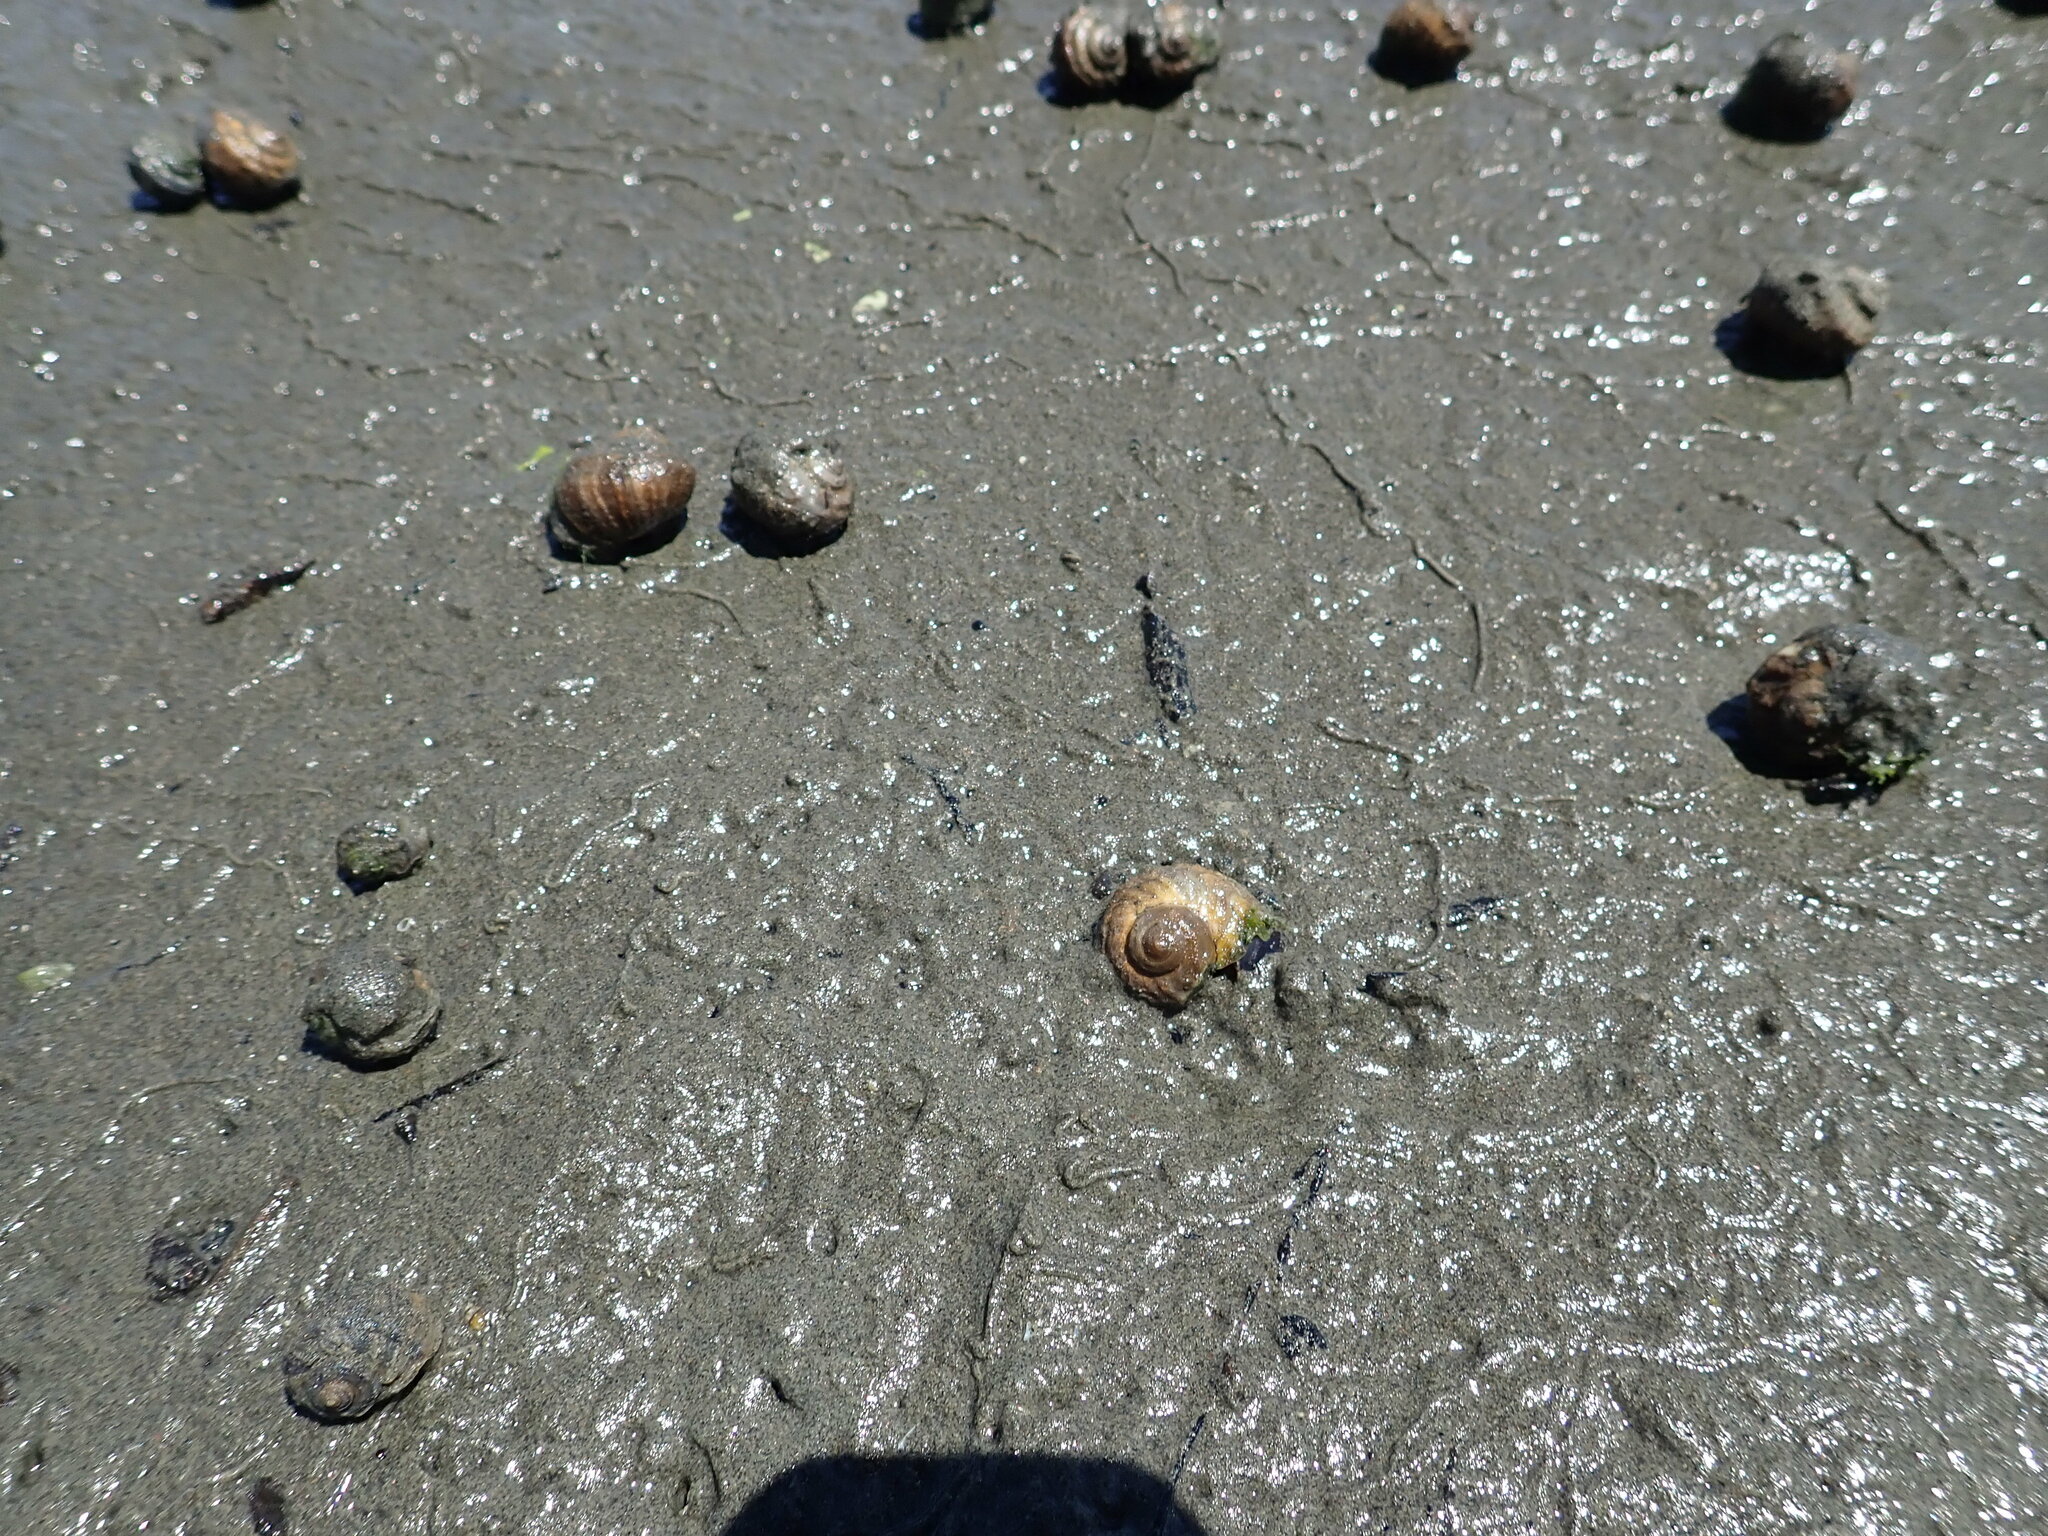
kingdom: Animalia
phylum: Mollusca
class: Gastropoda
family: Amphibolidae
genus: Amphibola
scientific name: Amphibola crenata
